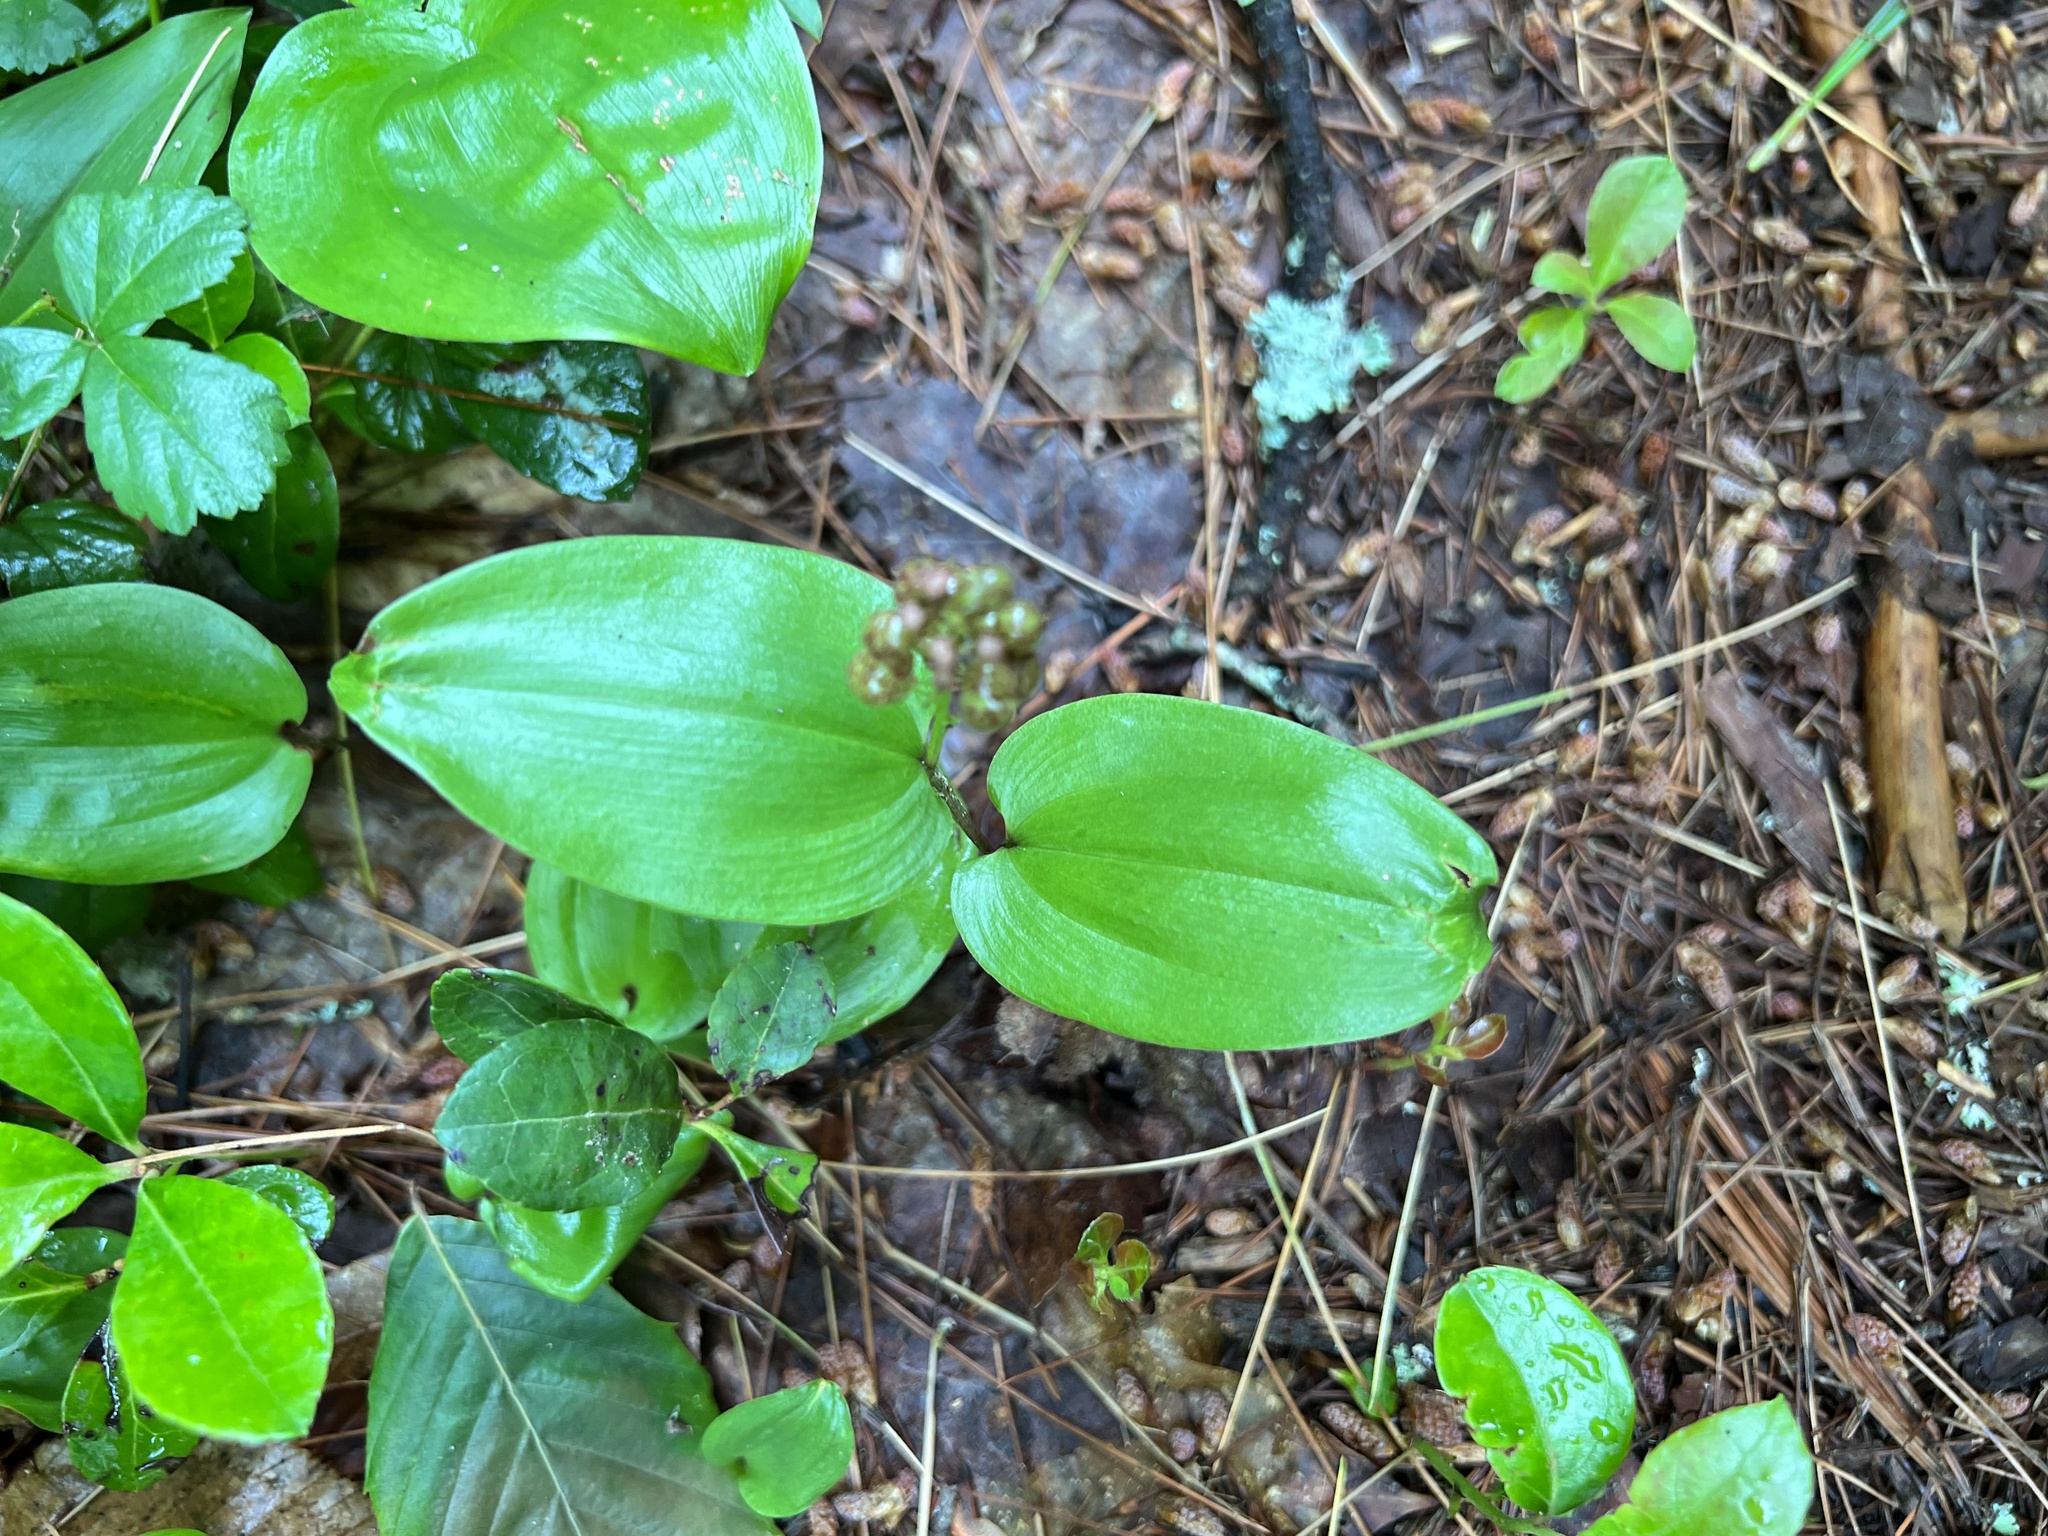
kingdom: Plantae
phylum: Tracheophyta
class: Liliopsida
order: Asparagales
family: Asparagaceae
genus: Maianthemum
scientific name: Maianthemum canadense
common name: False lily-of-the-valley
